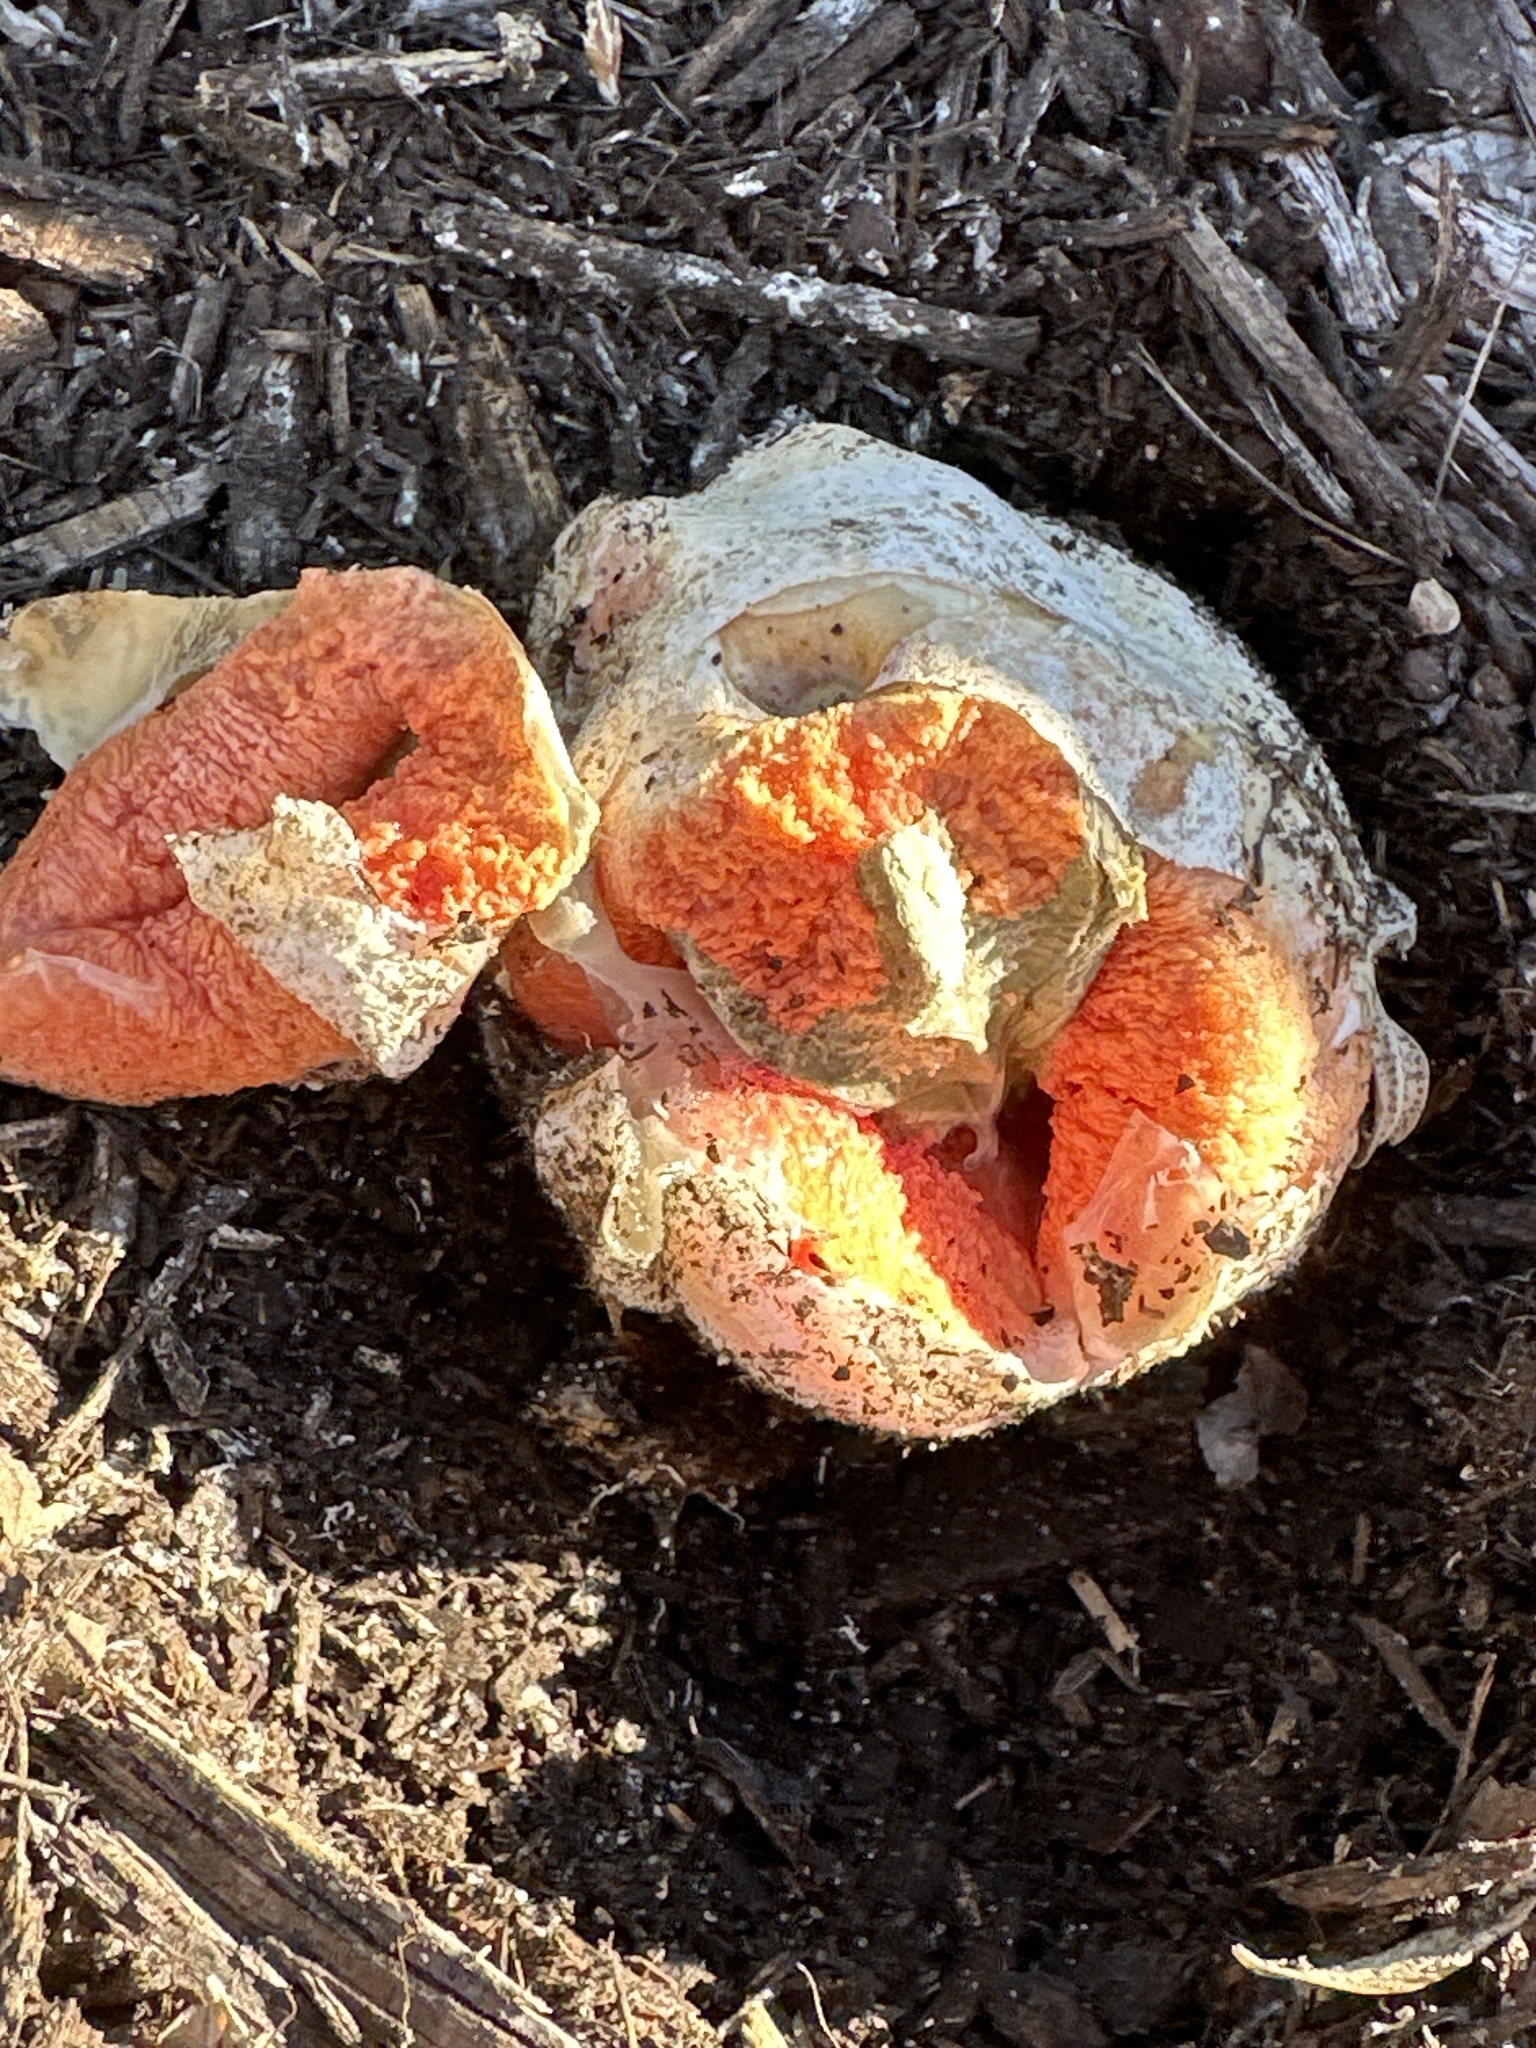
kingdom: Fungi
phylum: Basidiomycota
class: Agaricomycetes
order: Phallales
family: Phallaceae
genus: Clathrus
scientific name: Clathrus columnatus
